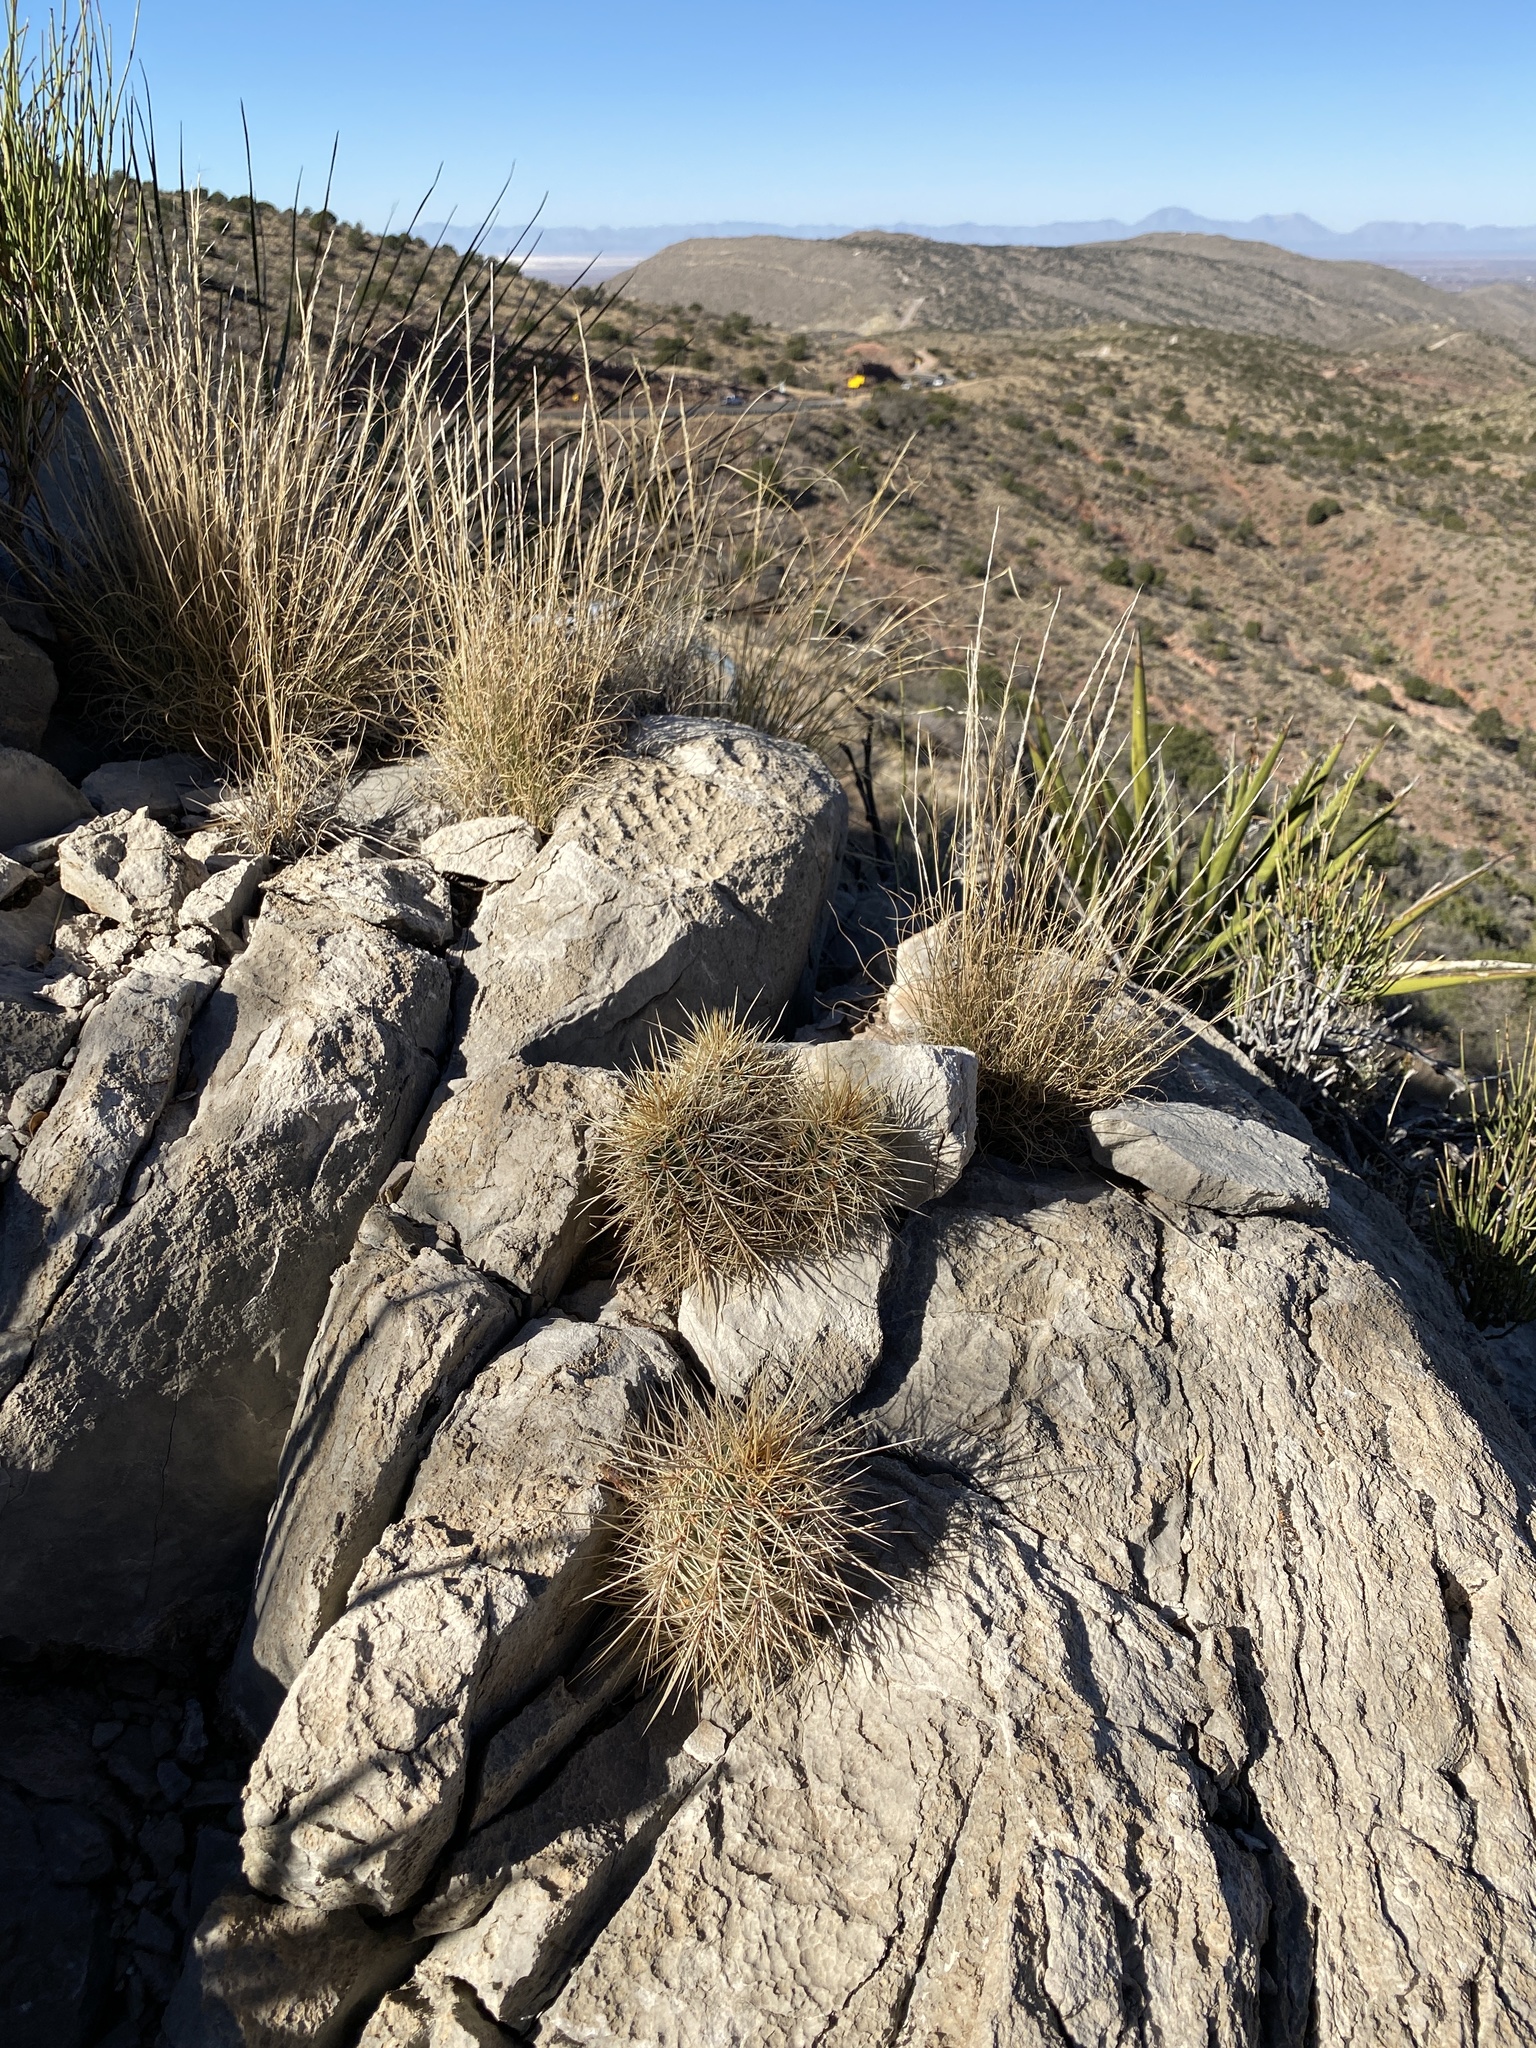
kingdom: Plantae
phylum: Tracheophyta
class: Magnoliopsida
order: Caryophyllales
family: Cactaceae
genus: Echinocereus
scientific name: Echinocereus coccineus
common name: Scarlet hedgehog cactus
